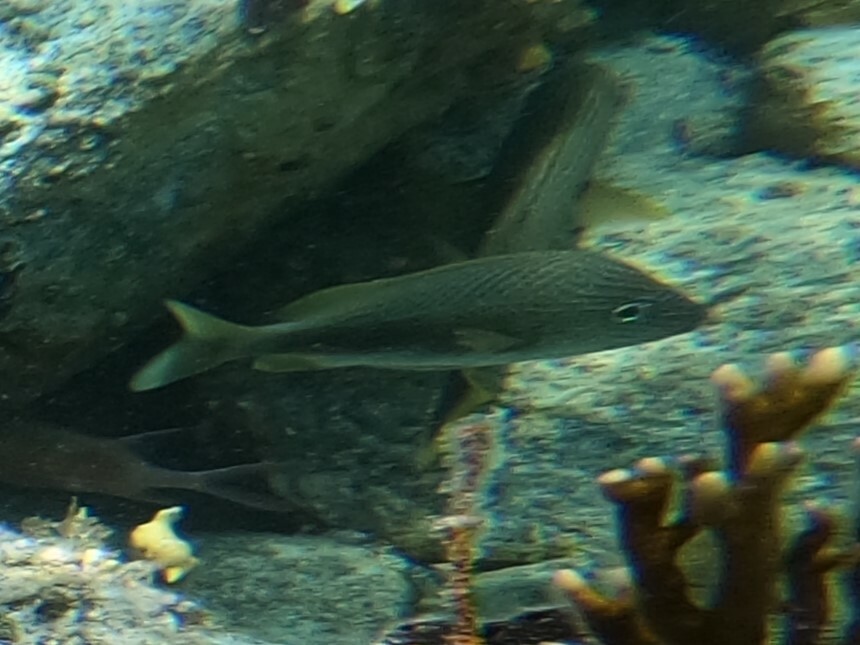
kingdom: Animalia
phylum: Chordata
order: Perciformes
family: Haemulidae
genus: Haemulon
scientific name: Haemulon plumierii
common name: White grunt
